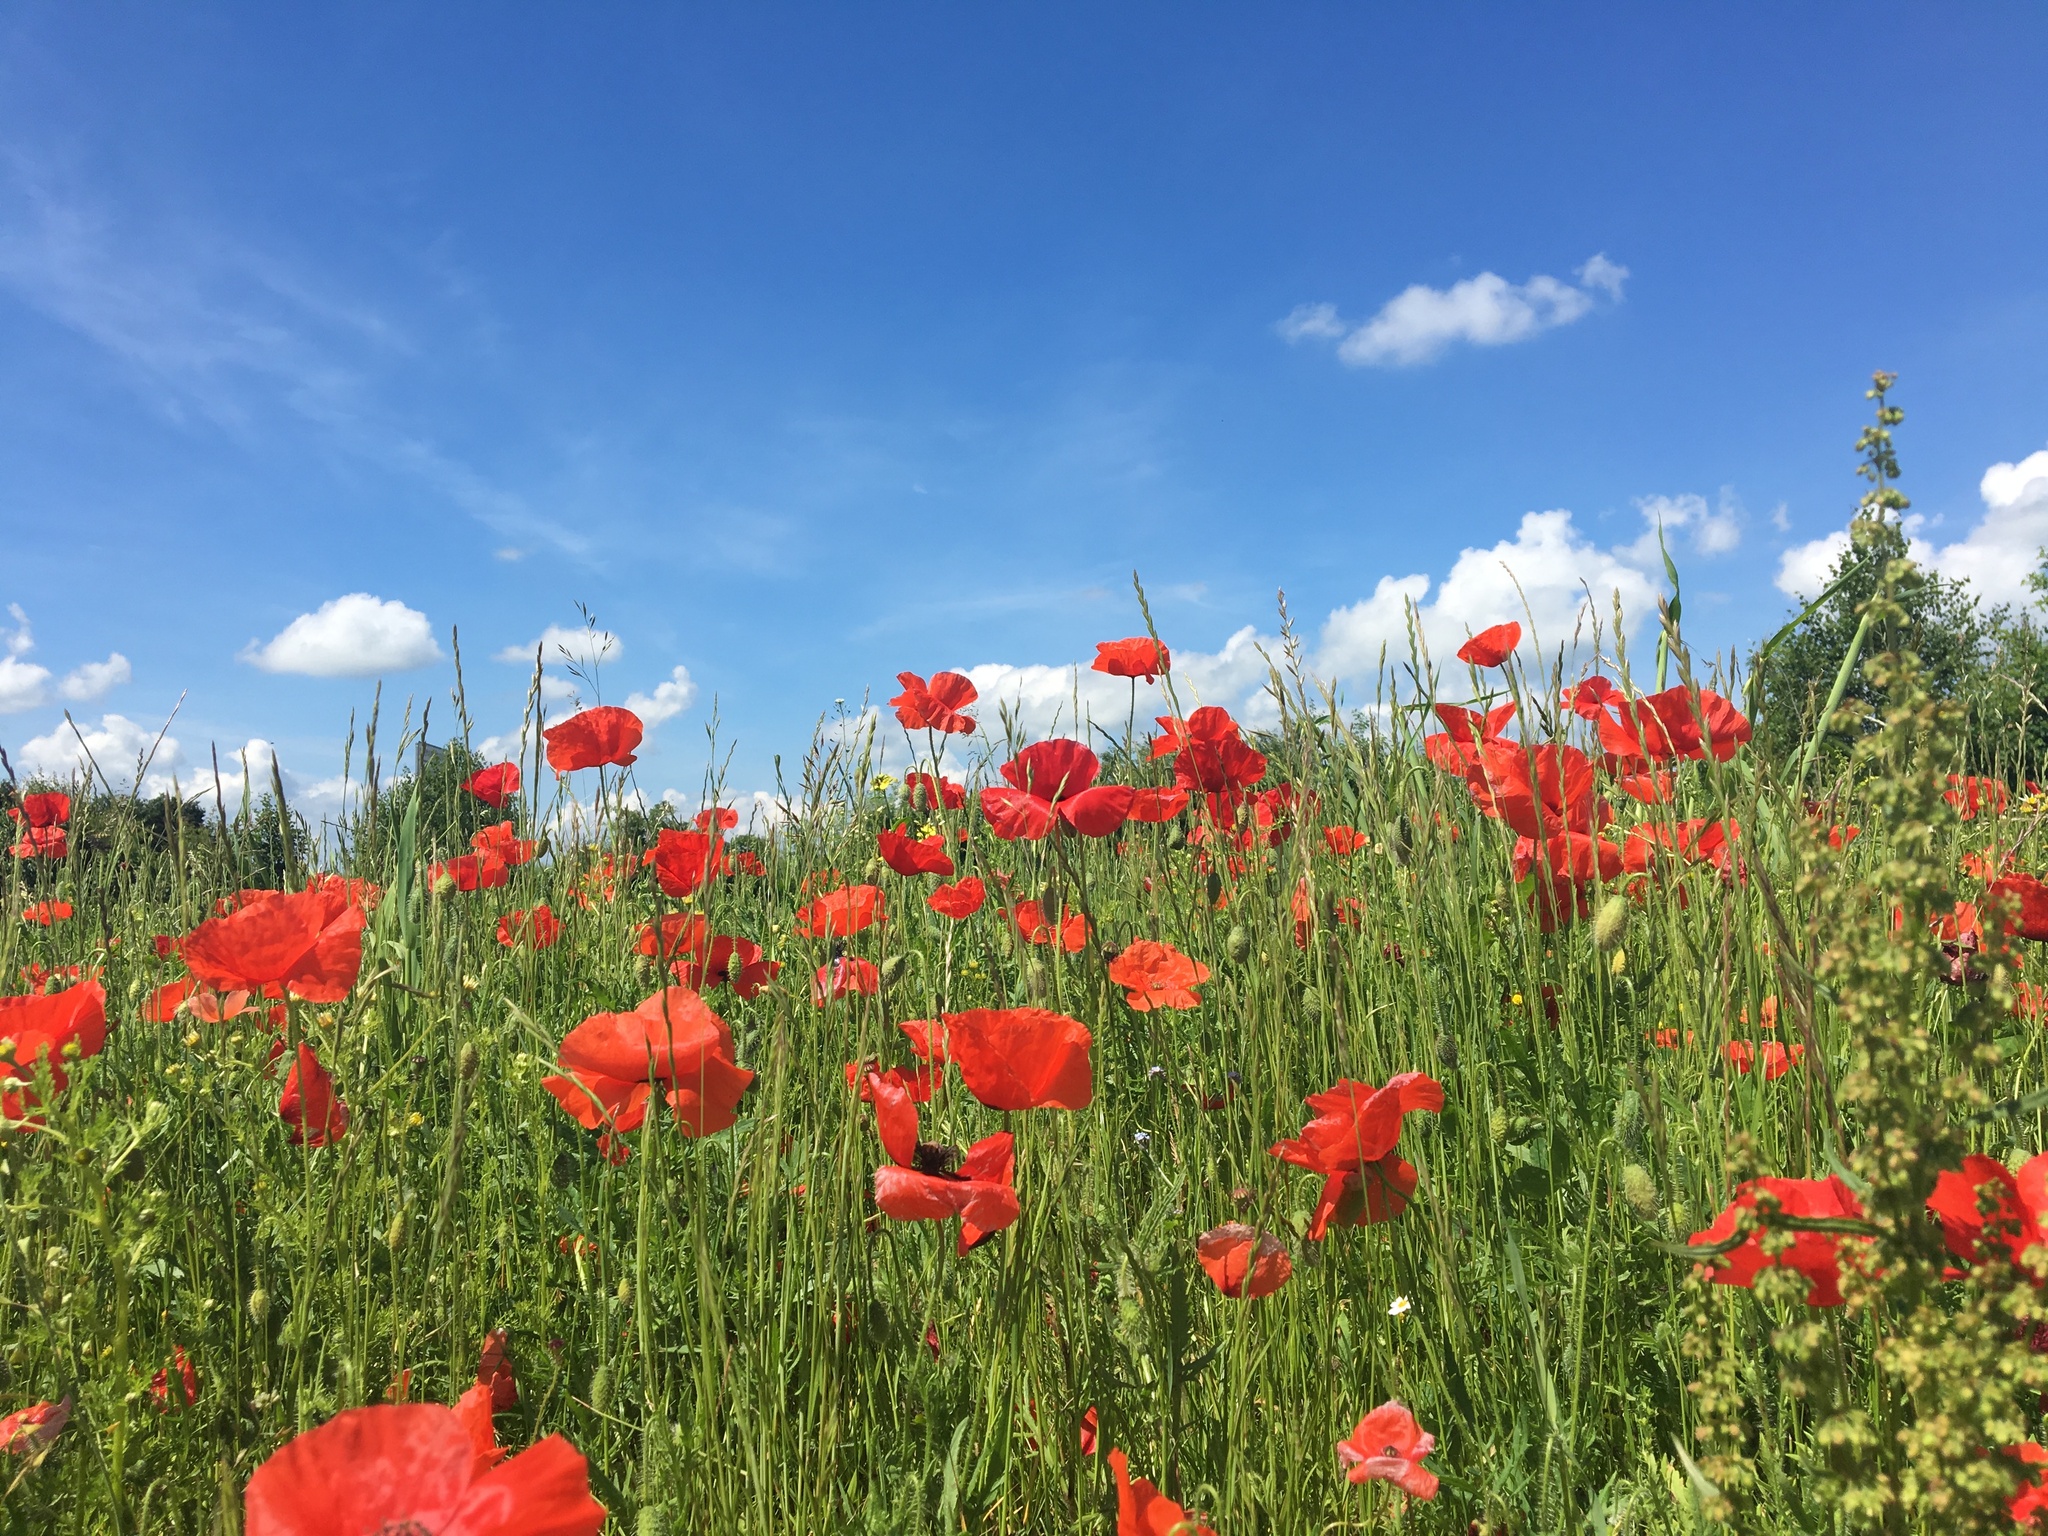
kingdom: Plantae
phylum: Tracheophyta
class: Magnoliopsida
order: Ranunculales
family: Papaveraceae
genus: Papaver
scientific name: Papaver rhoeas
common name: Corn poppy
